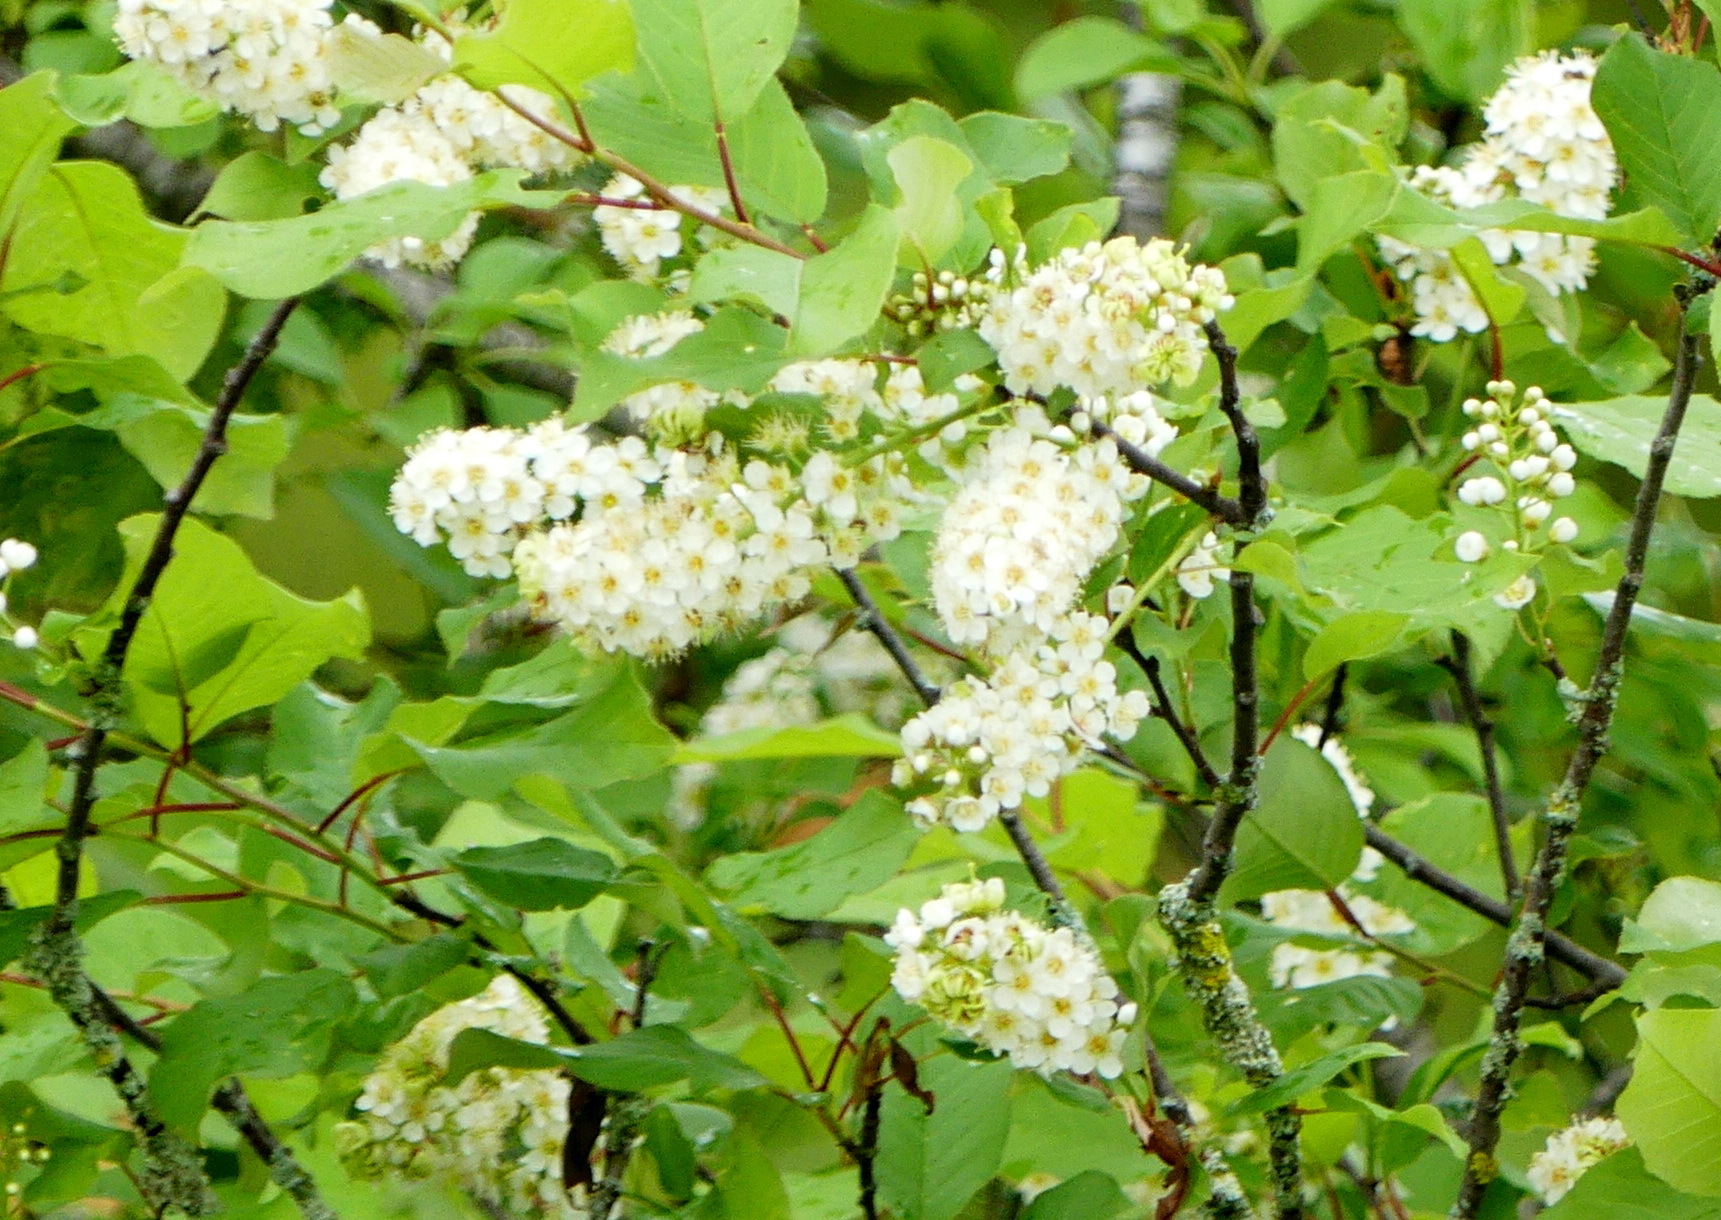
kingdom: Plantae
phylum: Tracheophyta
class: Magnoliopsida
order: Rosales
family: Rosaceae
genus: Prunus
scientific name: Prunus virginiana
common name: Chokecherry
